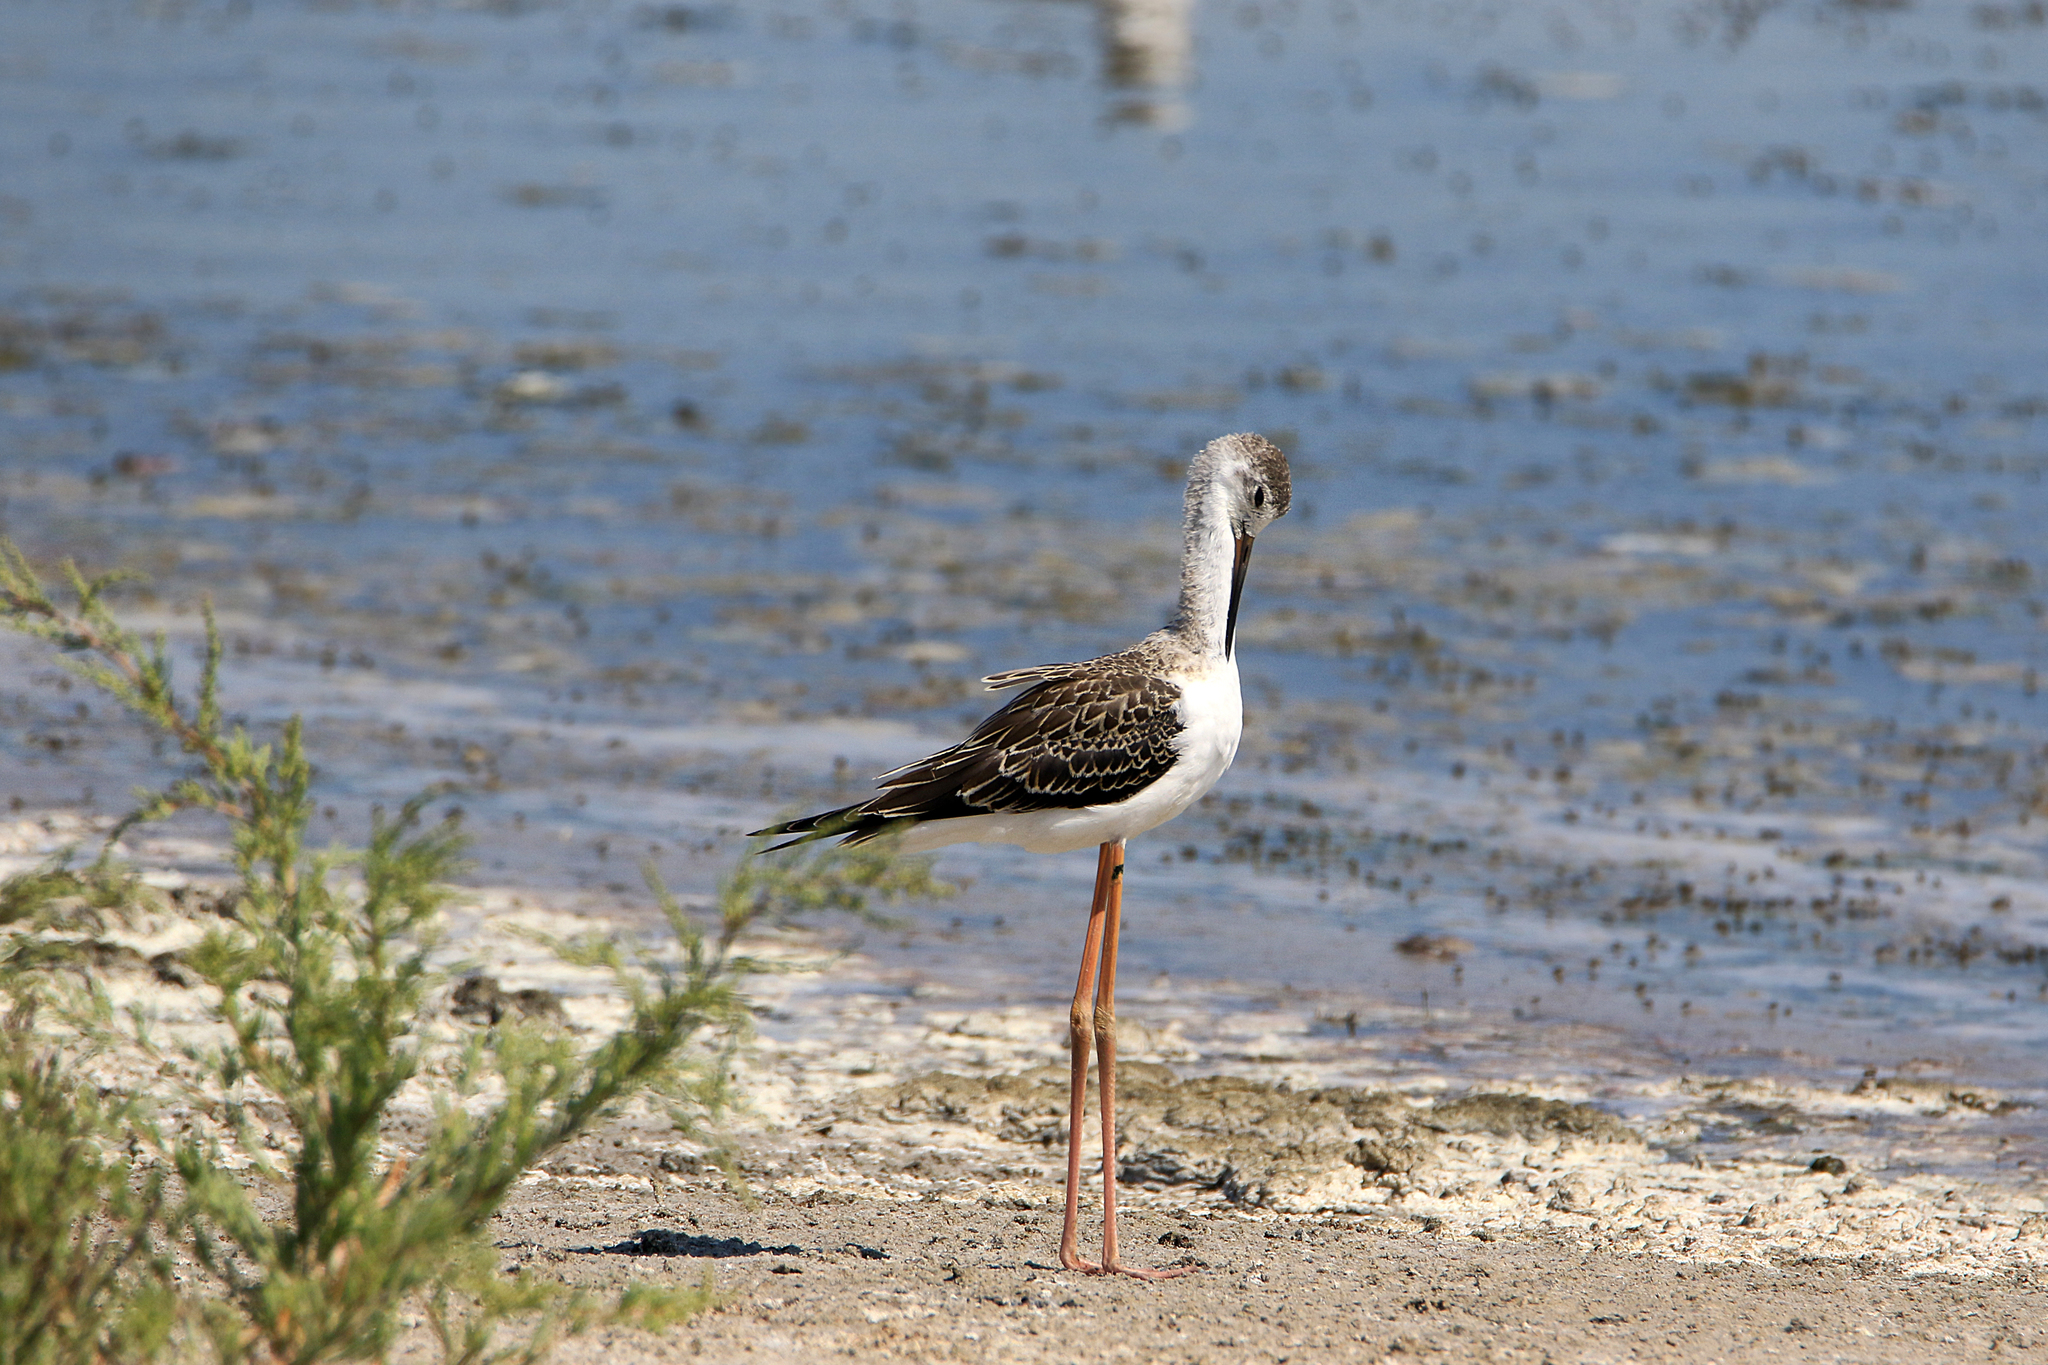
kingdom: Animalia
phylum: Chordata
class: Aves
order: Charadriiformes
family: Recurvirostridae
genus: Himantopus
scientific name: Himantopus himantopus
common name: Black-winged stilt
